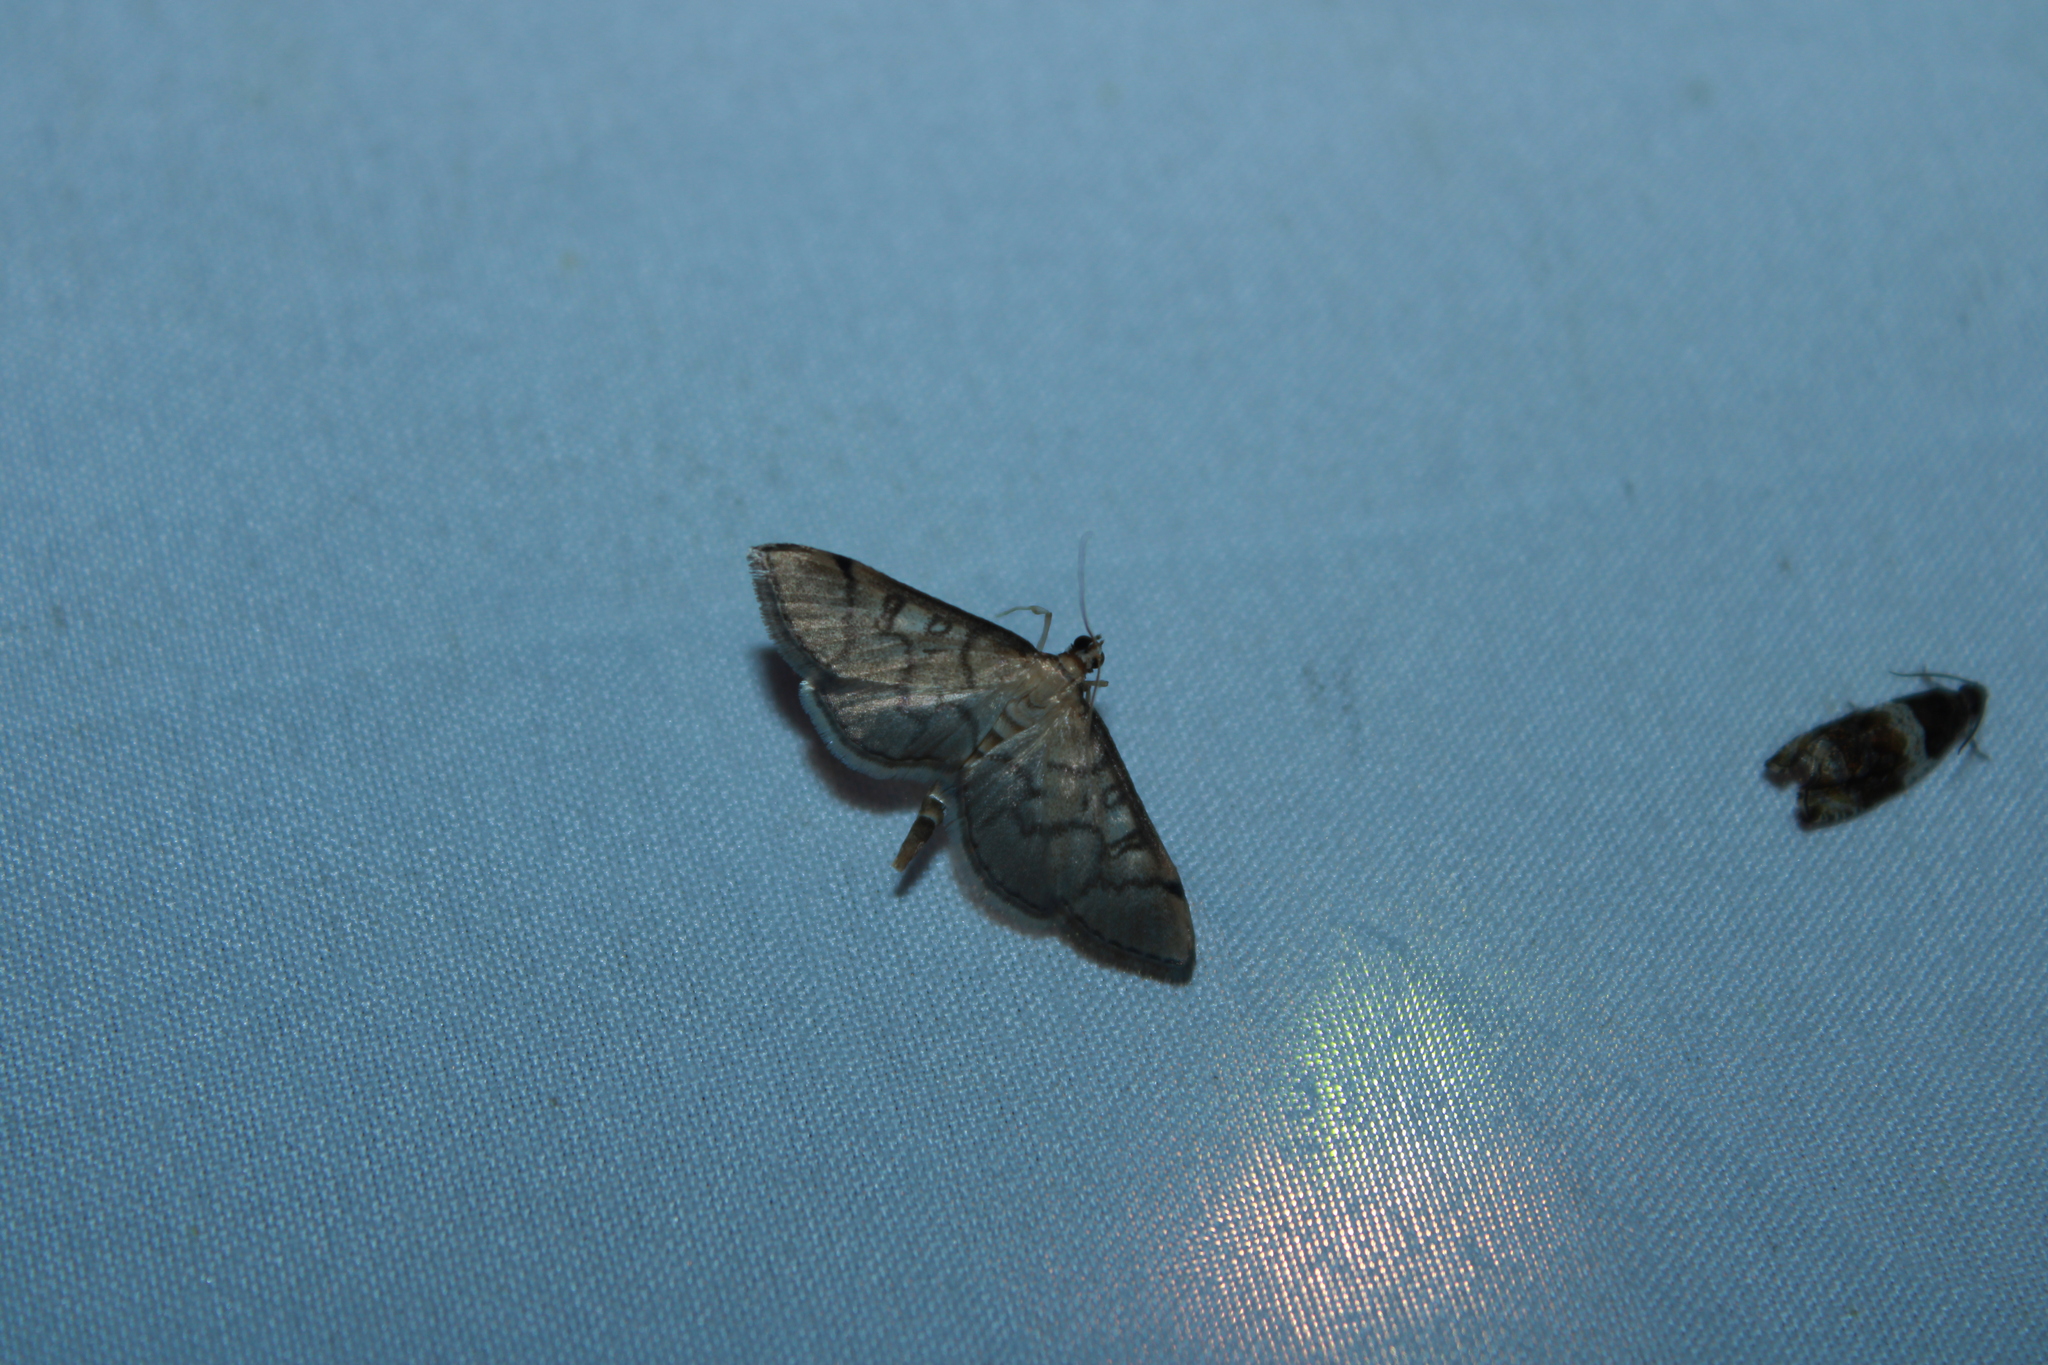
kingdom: Animalia
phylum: Arthropoda
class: Insecta
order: Lepidoptera
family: Crambidae
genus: Lamprosema
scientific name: Lamprosema Blepharomastix ranalis
